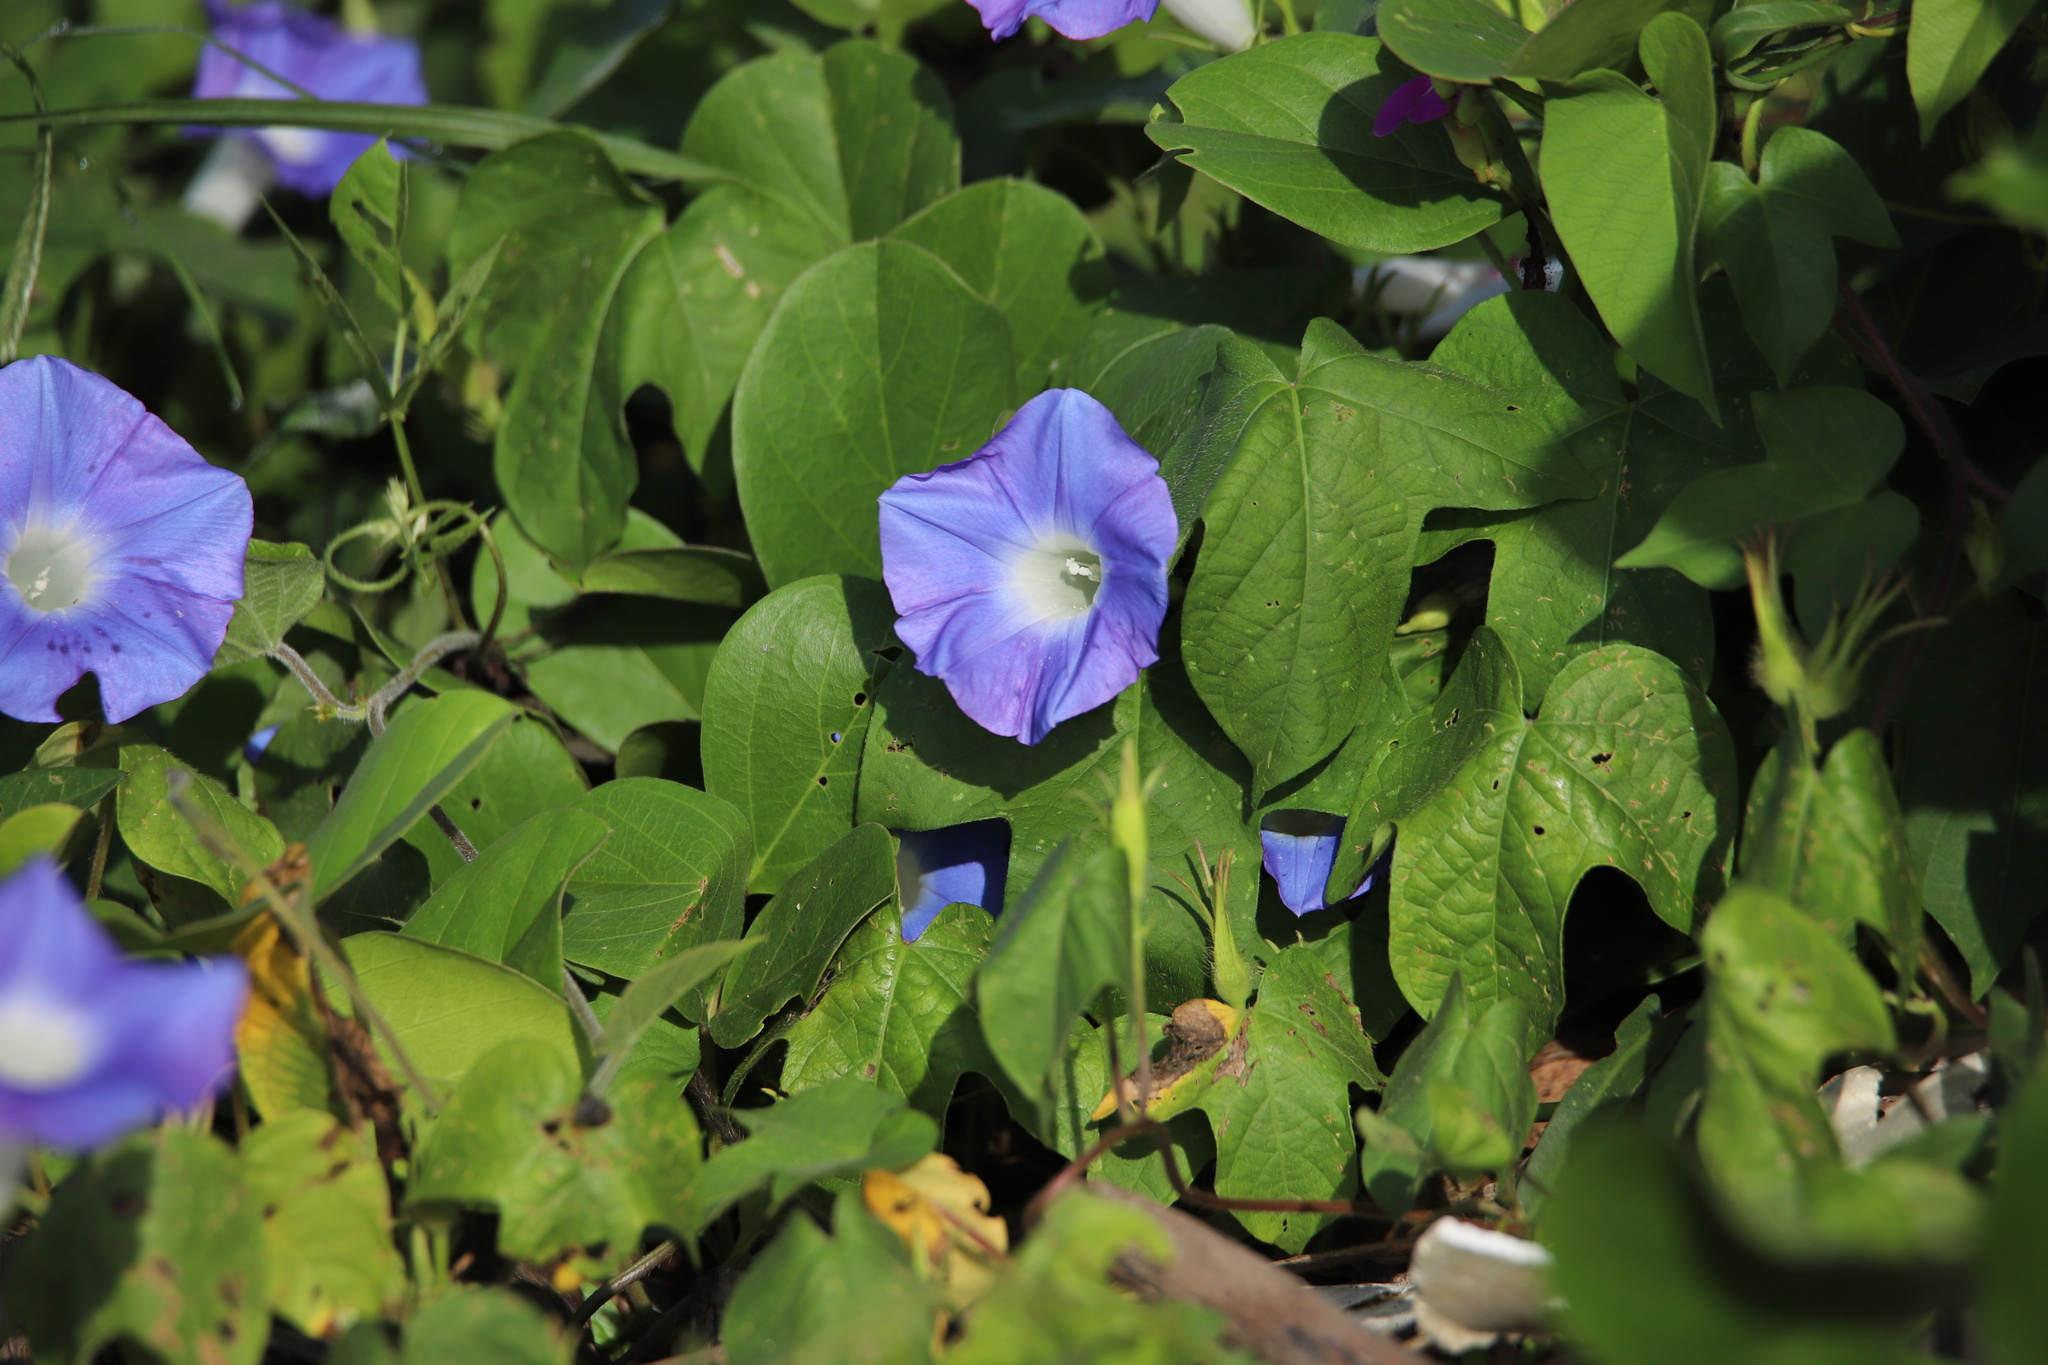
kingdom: Plantae
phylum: Tracheophyta
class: Magnoliopsida
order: Solanales
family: Convolvulaceae
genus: Ipomoea
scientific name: Ipomoea nil
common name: Japanese morning-glory
